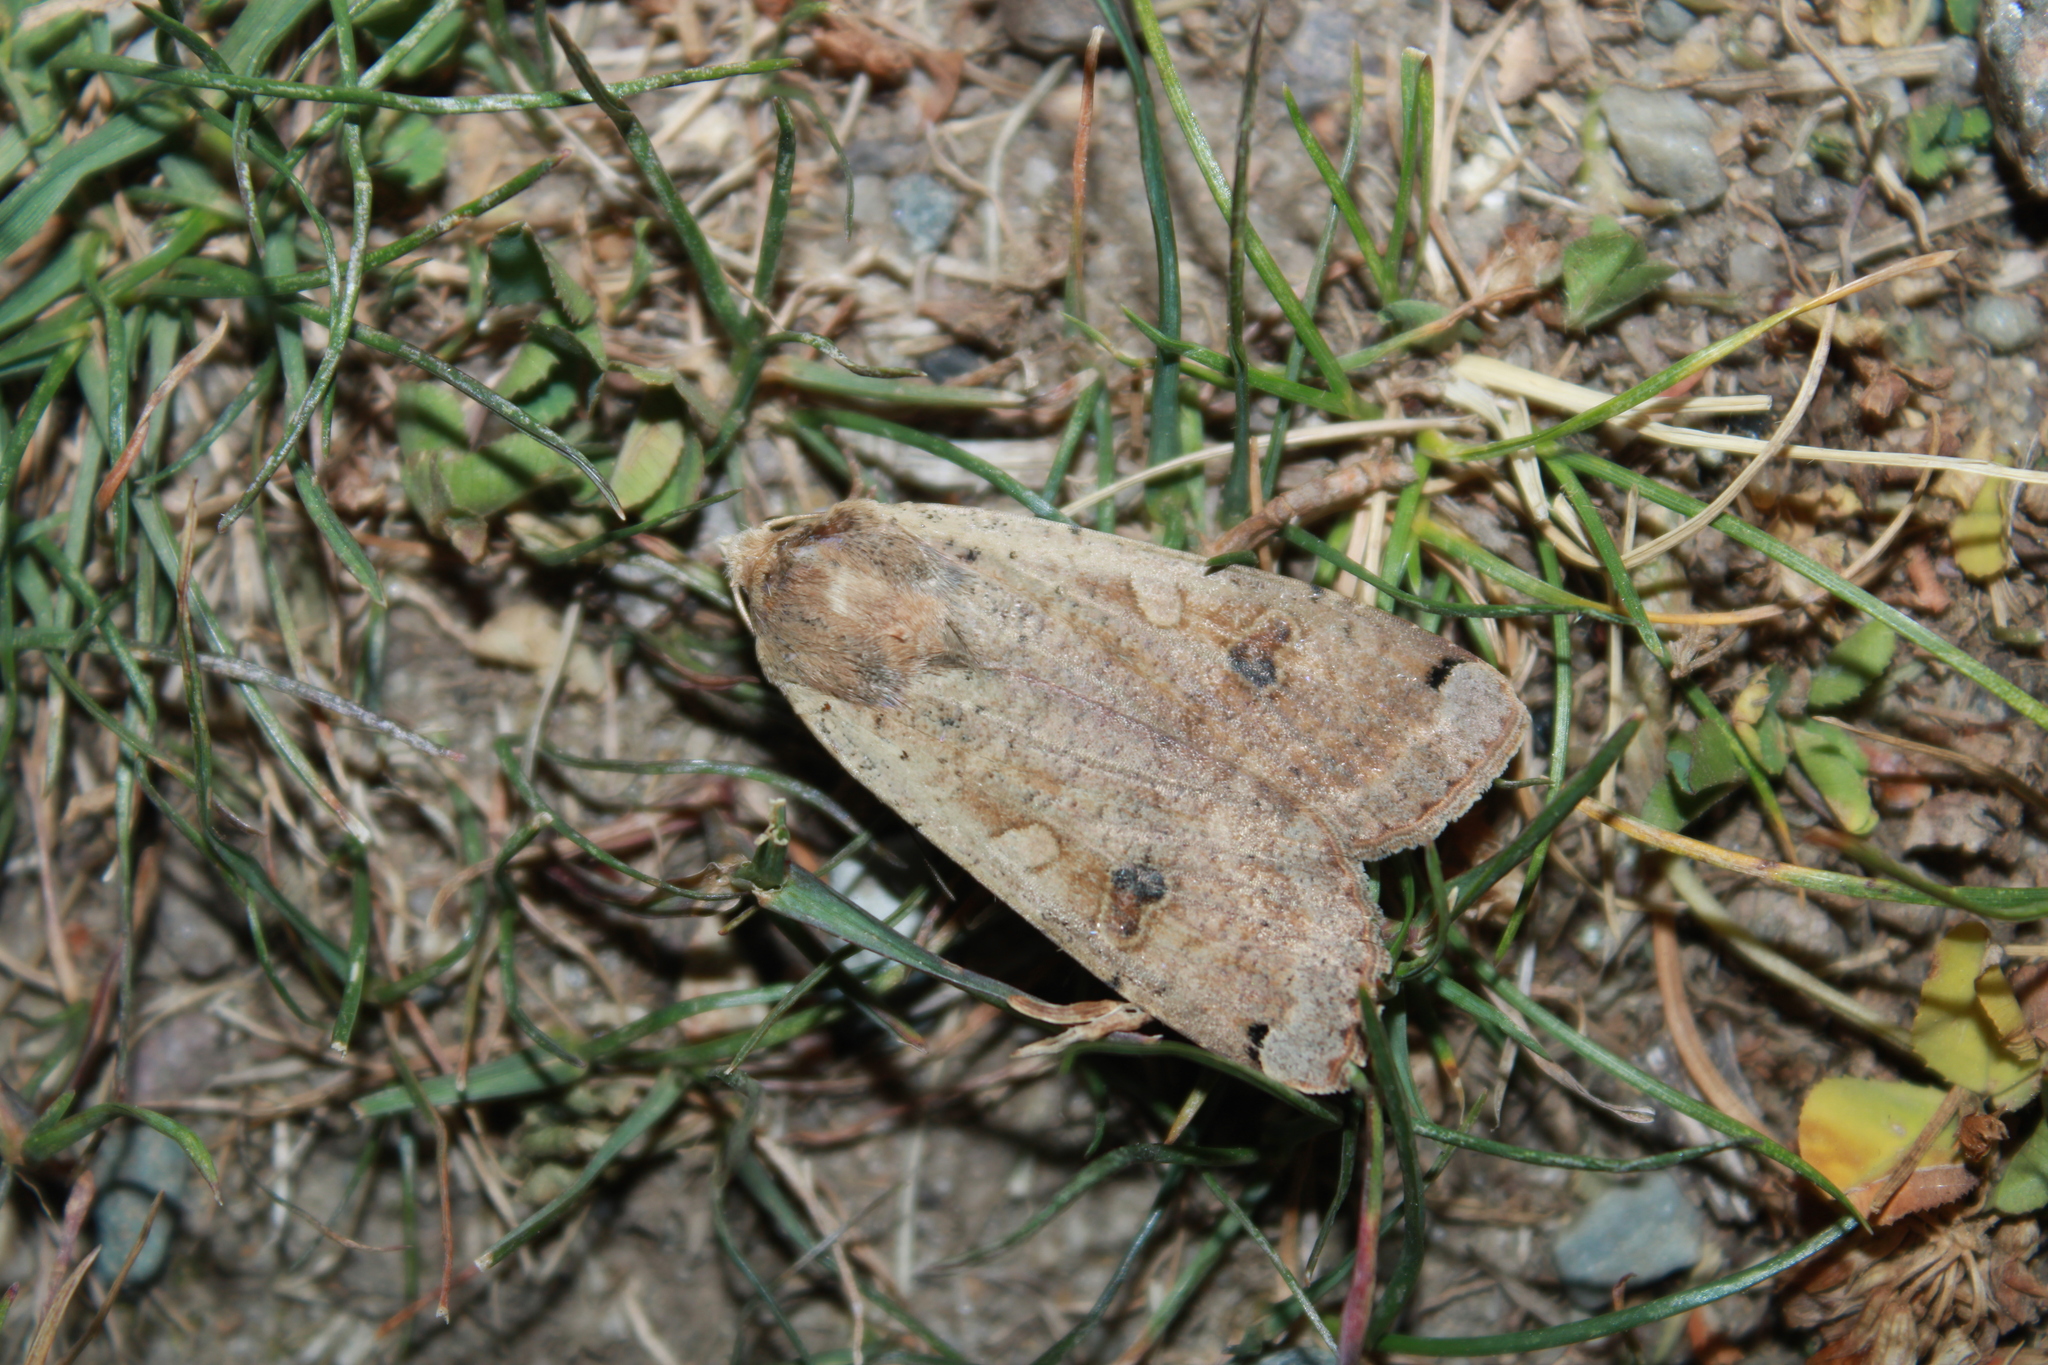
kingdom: Animalia
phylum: Arthropoda
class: Insecta
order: Lepidoptera
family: Noctuidae
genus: Noctua
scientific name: Noctua pronuba
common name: Large yellow underwing
